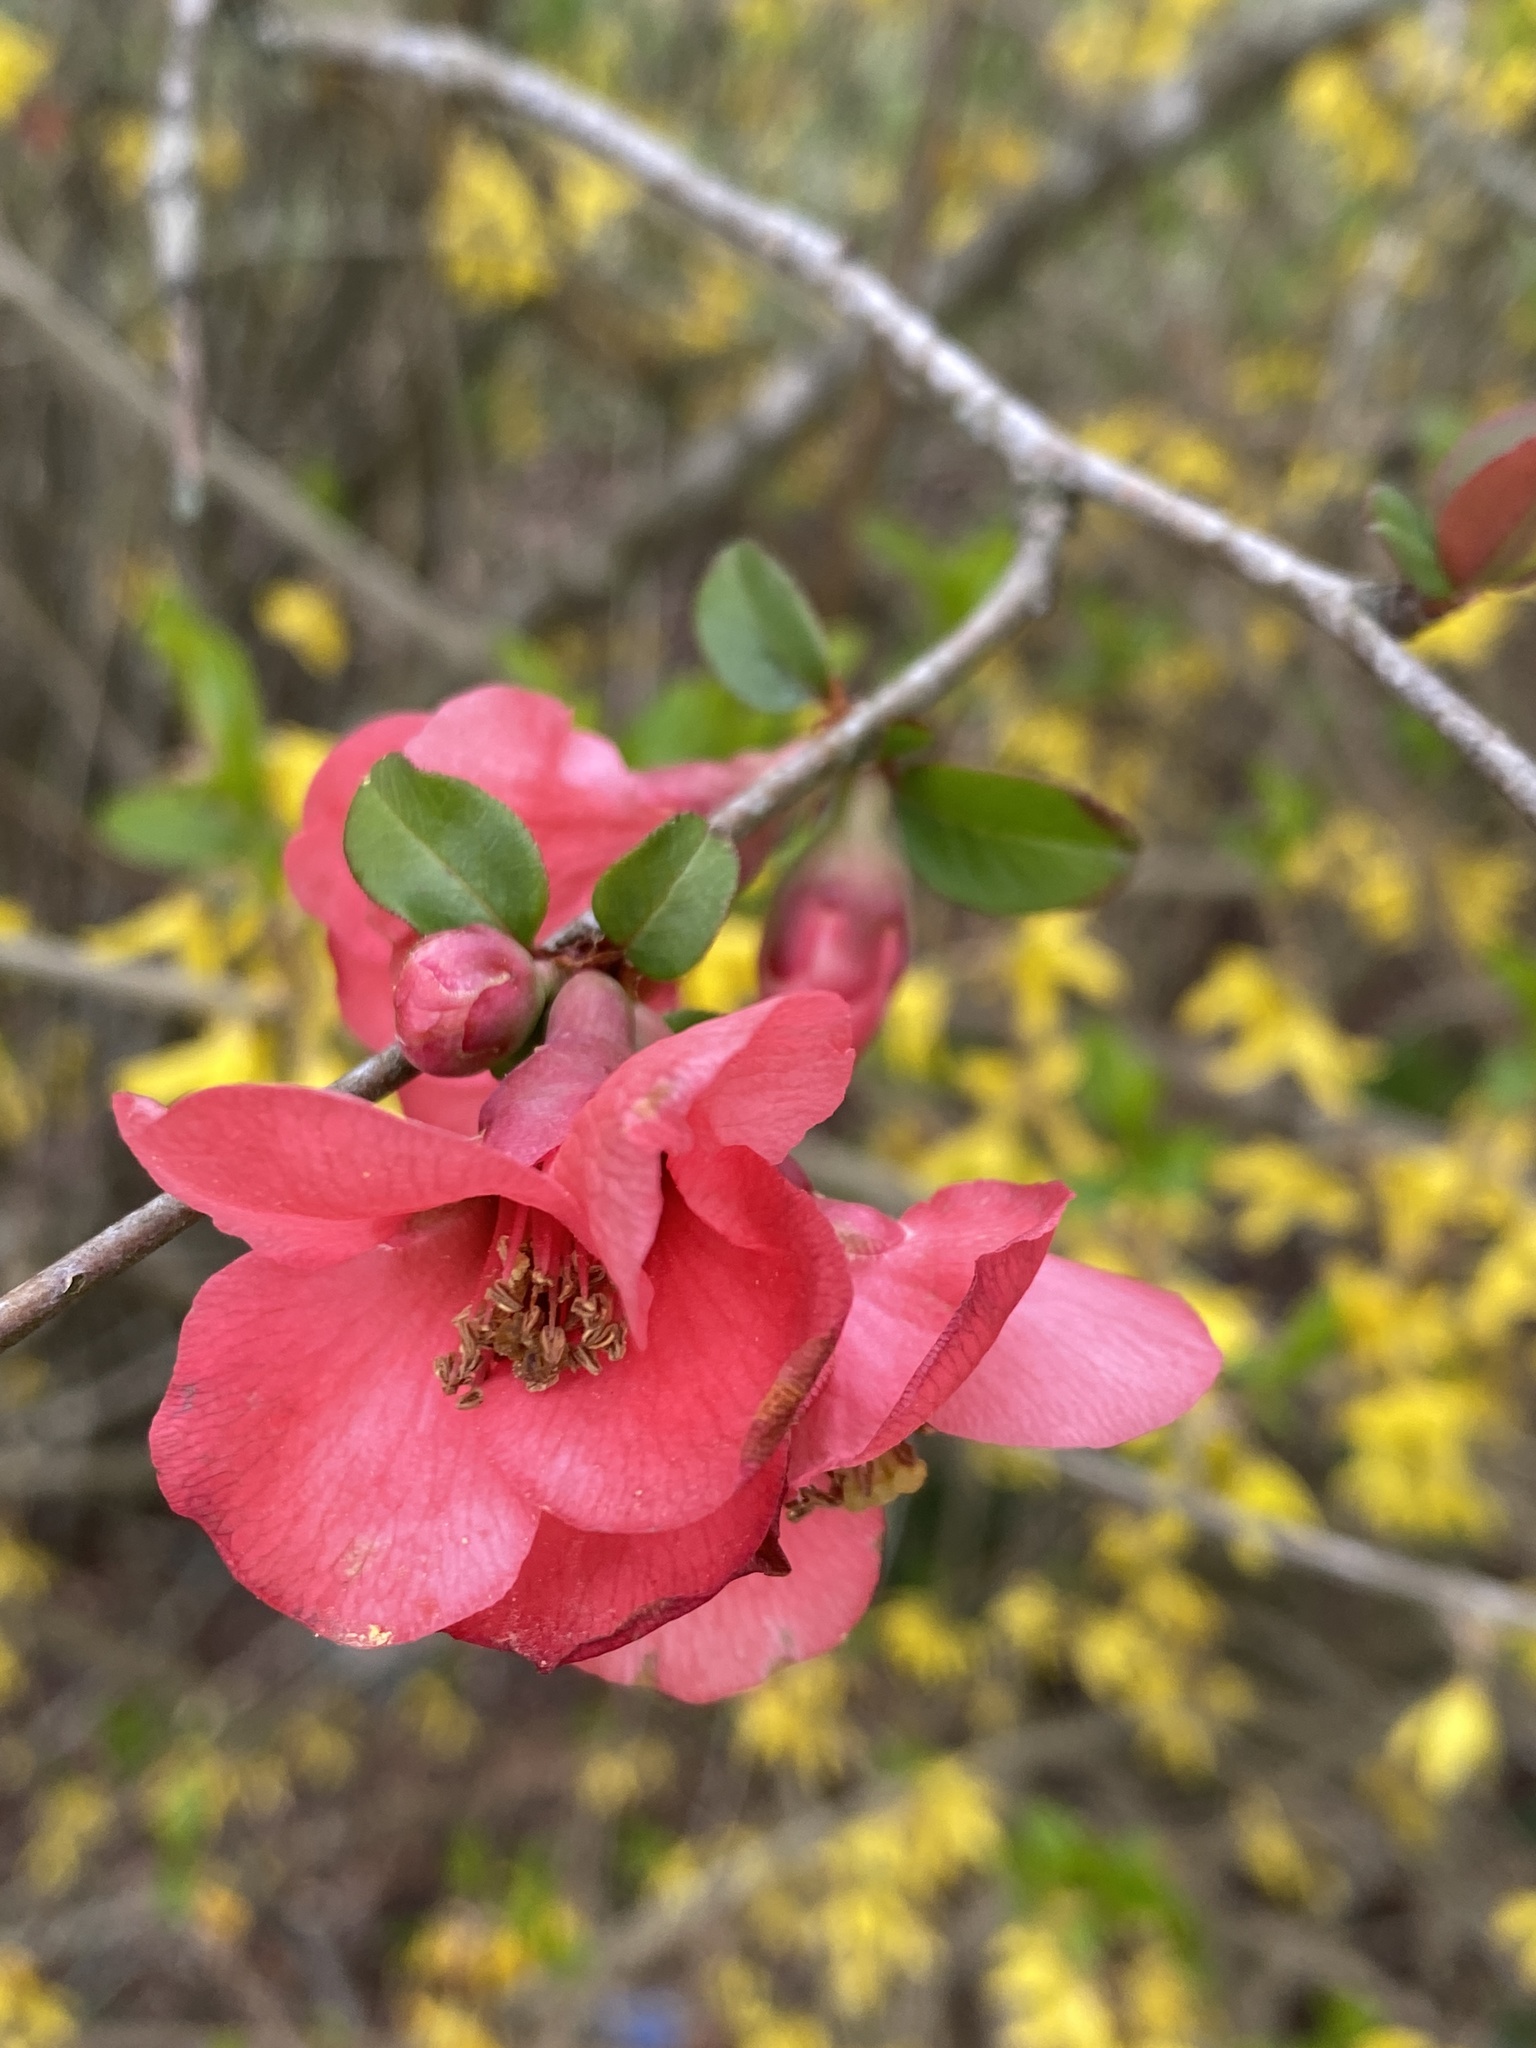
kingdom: Plantae
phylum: Tracheophyta
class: Magnoliopsida
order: Rosales
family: Rosaceae
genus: Chaenomeles
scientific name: Chaenomeles speciosa
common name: Japanese quince
